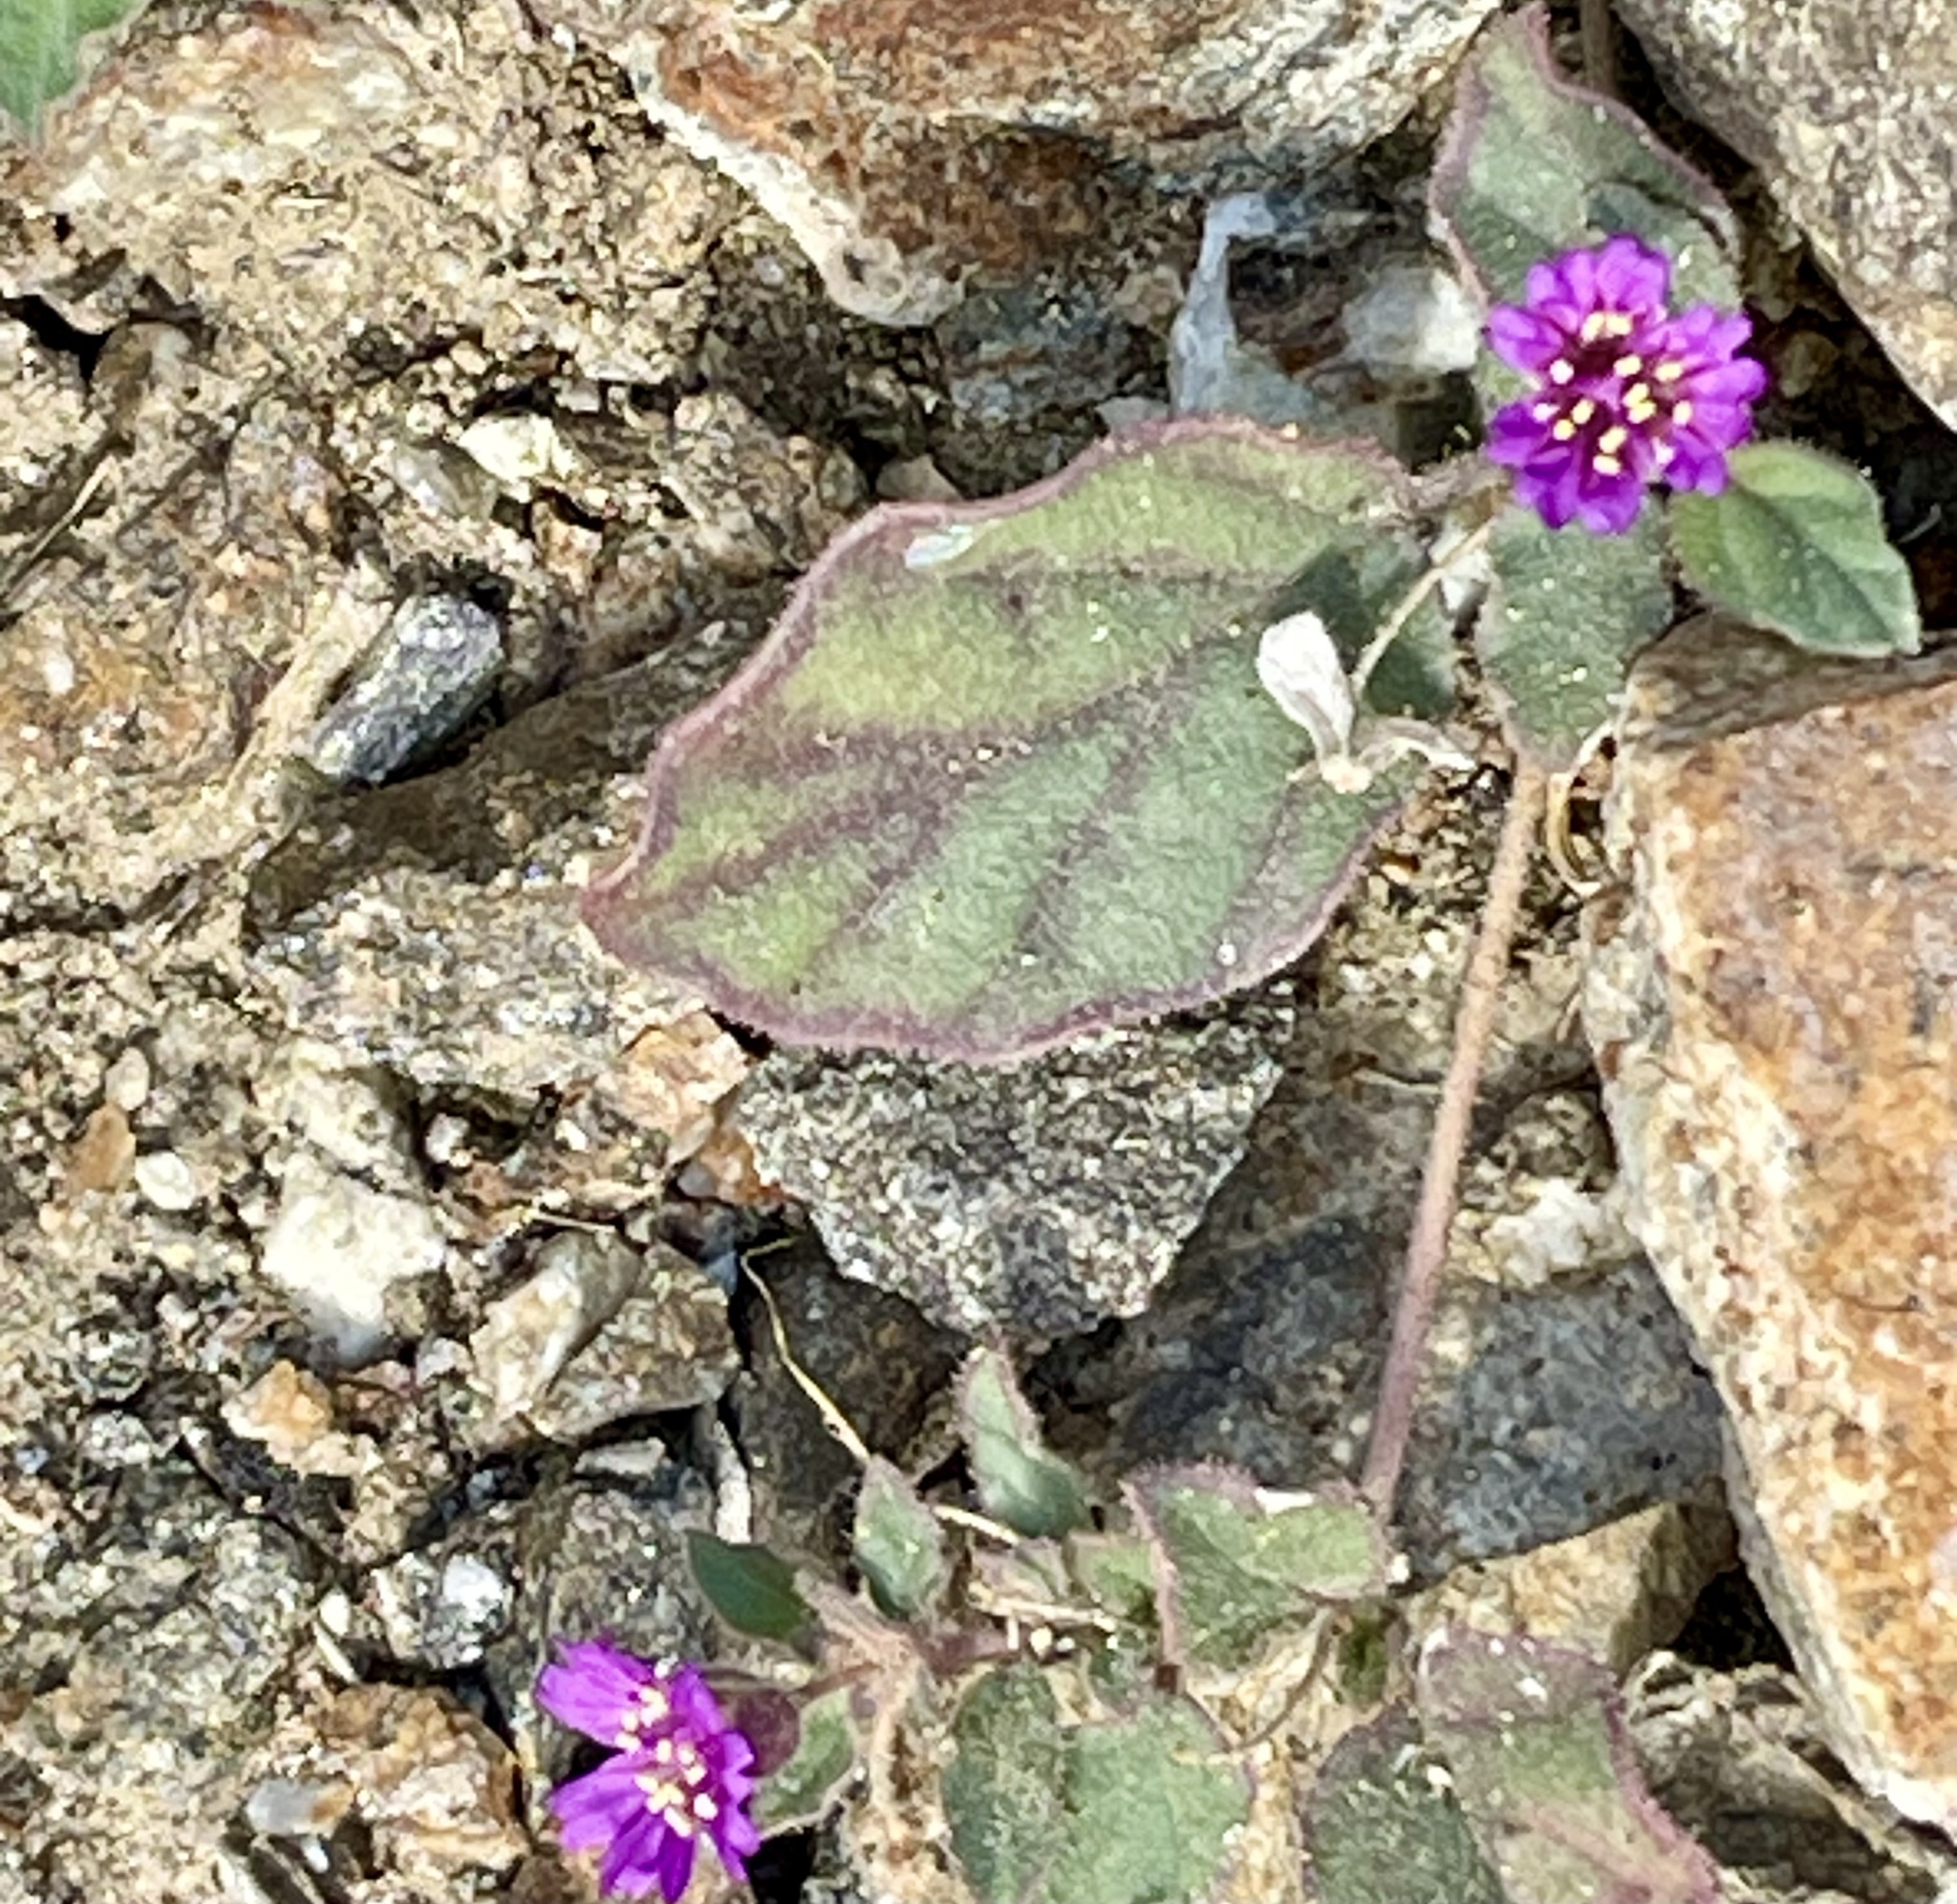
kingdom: Plantae
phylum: Tracheophyta
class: Magnoliopsida
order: Caryophyllales
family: Nyctaginaceae
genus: Allionia
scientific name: Allionia incarnata
